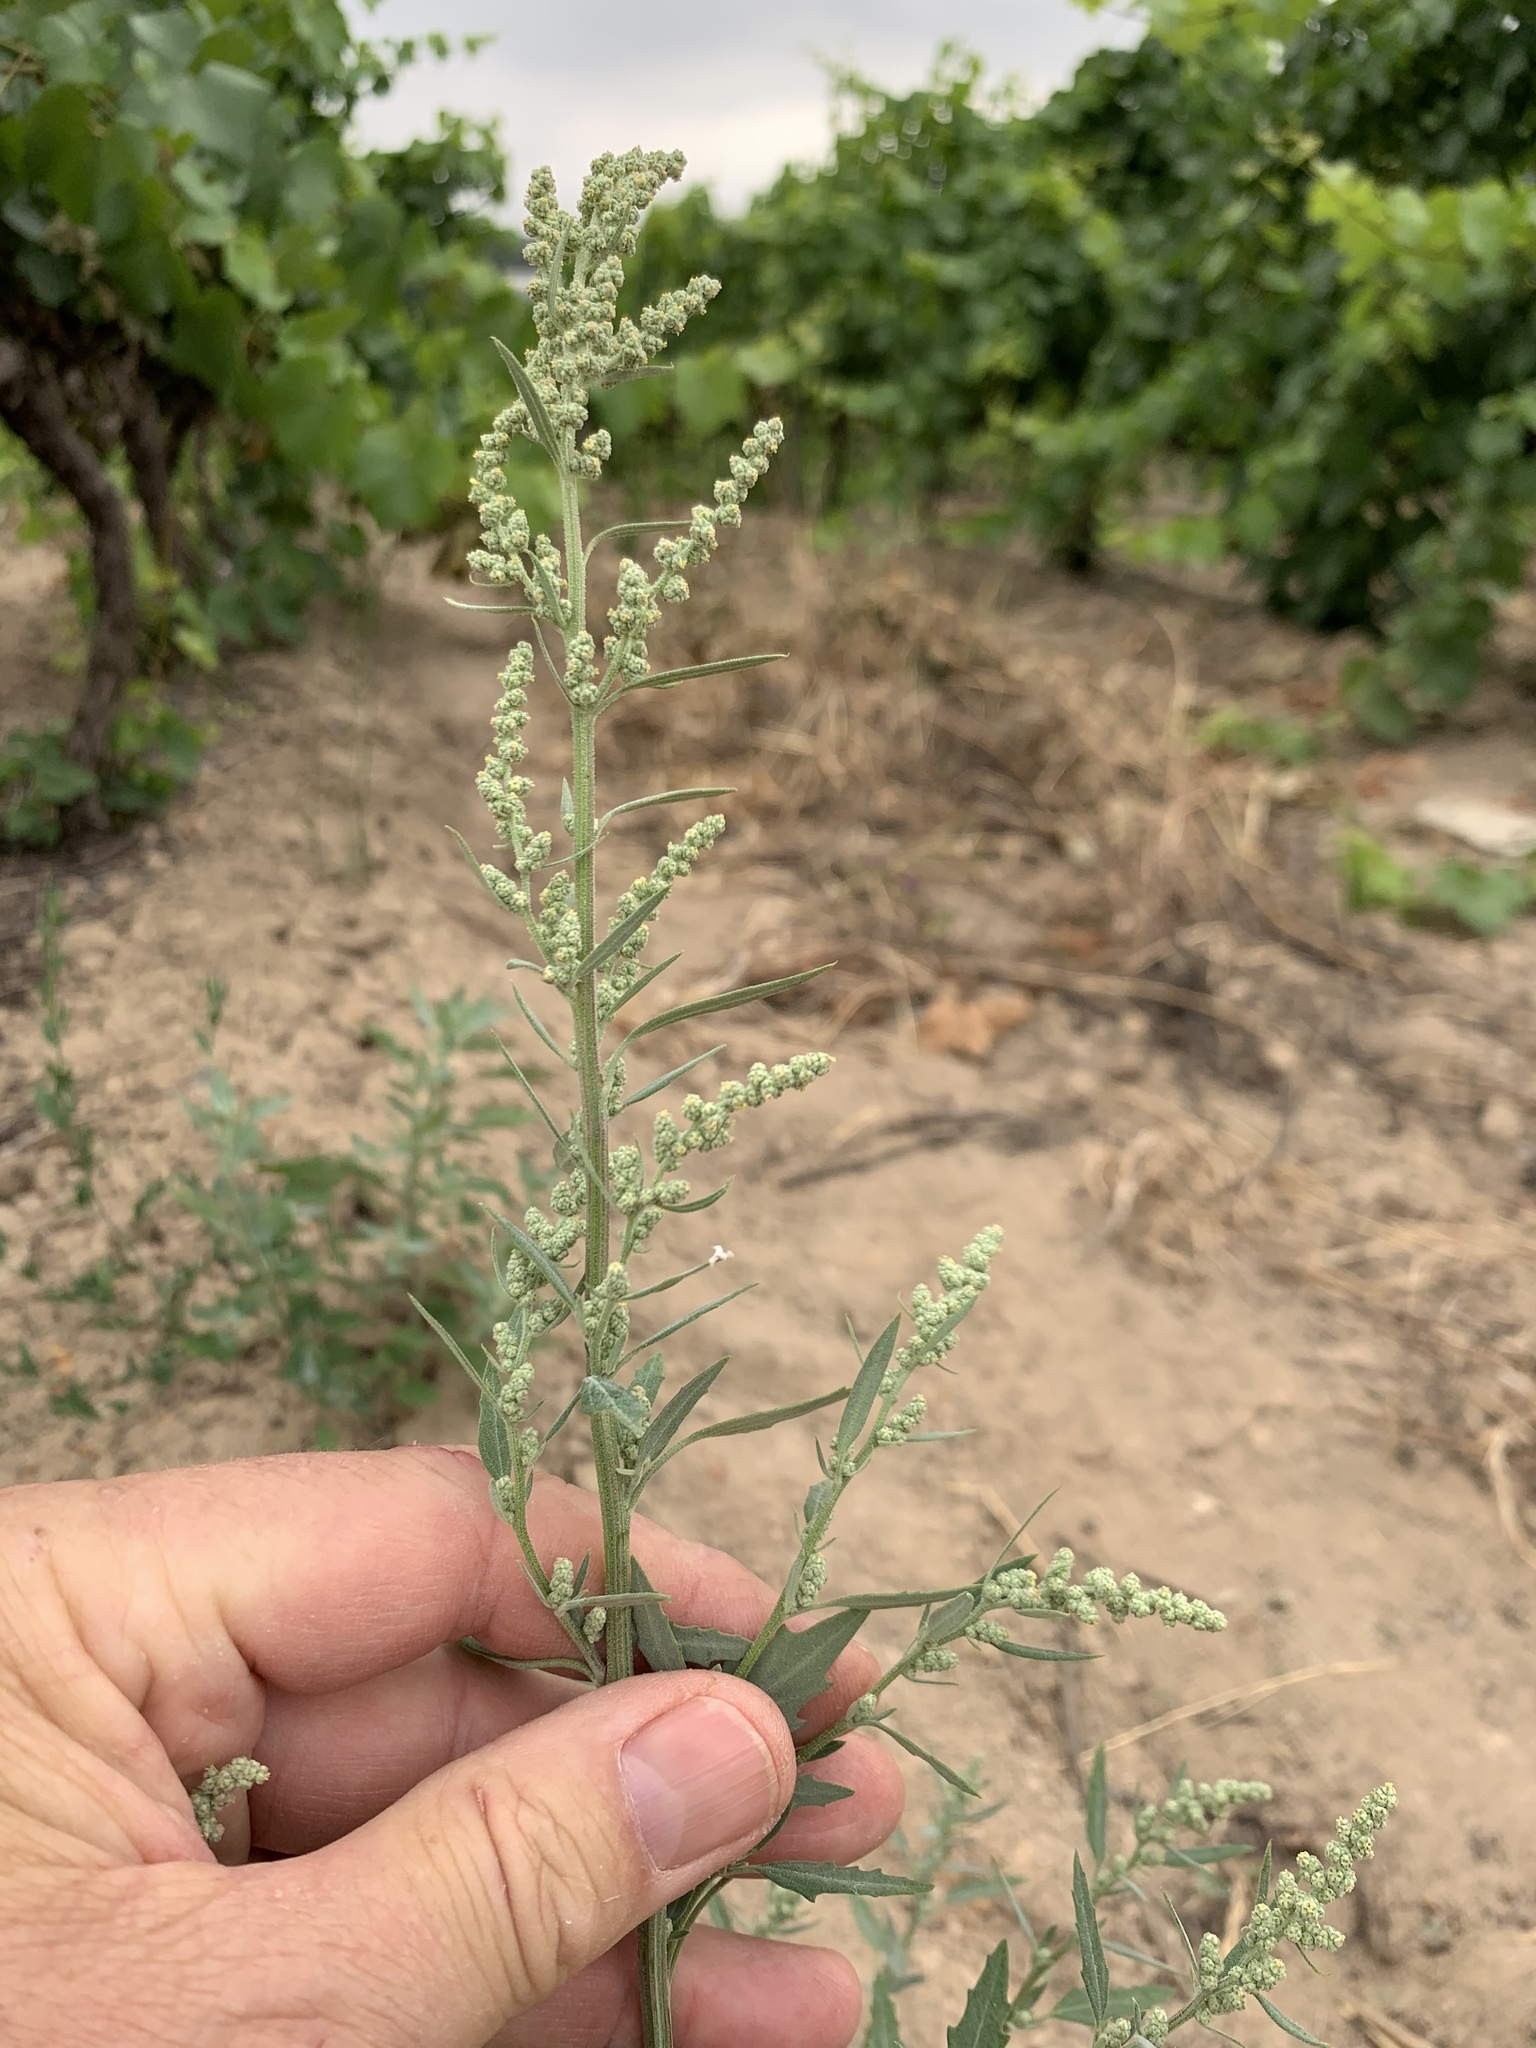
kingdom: Plantae
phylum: Tracheophyta
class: Magnoliopsida
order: Caryophyllales
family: Amaranthaceae
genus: Chenopodium
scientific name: Chenopodium album
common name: Fat-hen
